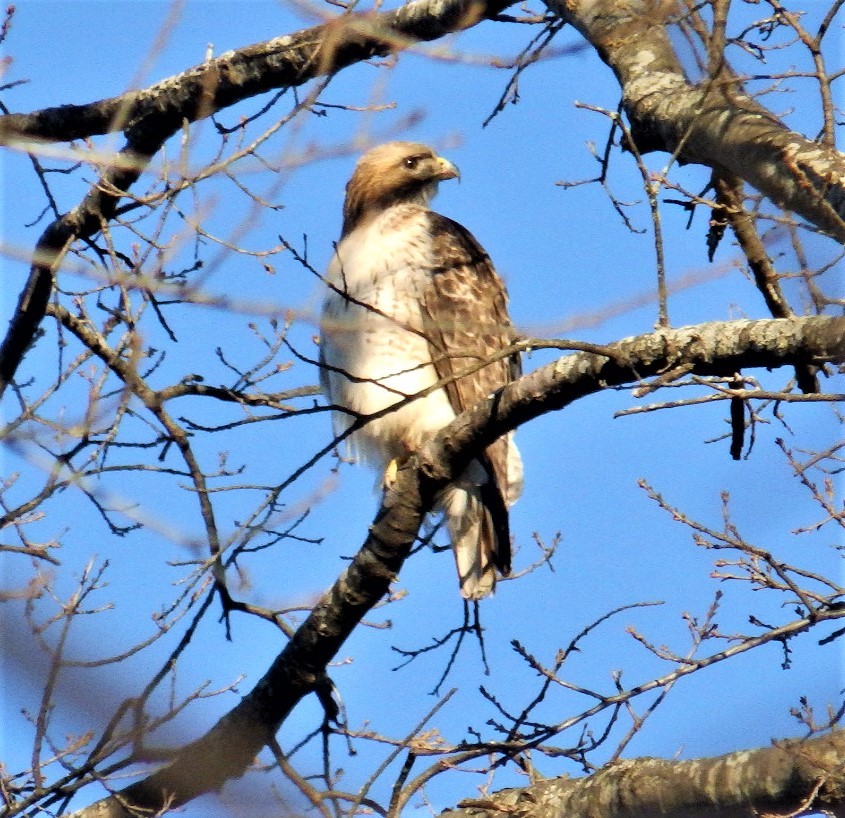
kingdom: Animalia
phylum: Chordata
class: Aves
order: Accipitriformes
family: Accipitridae
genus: Buteo
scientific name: Buteo jamaicensis
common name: Red-tailed hawk
